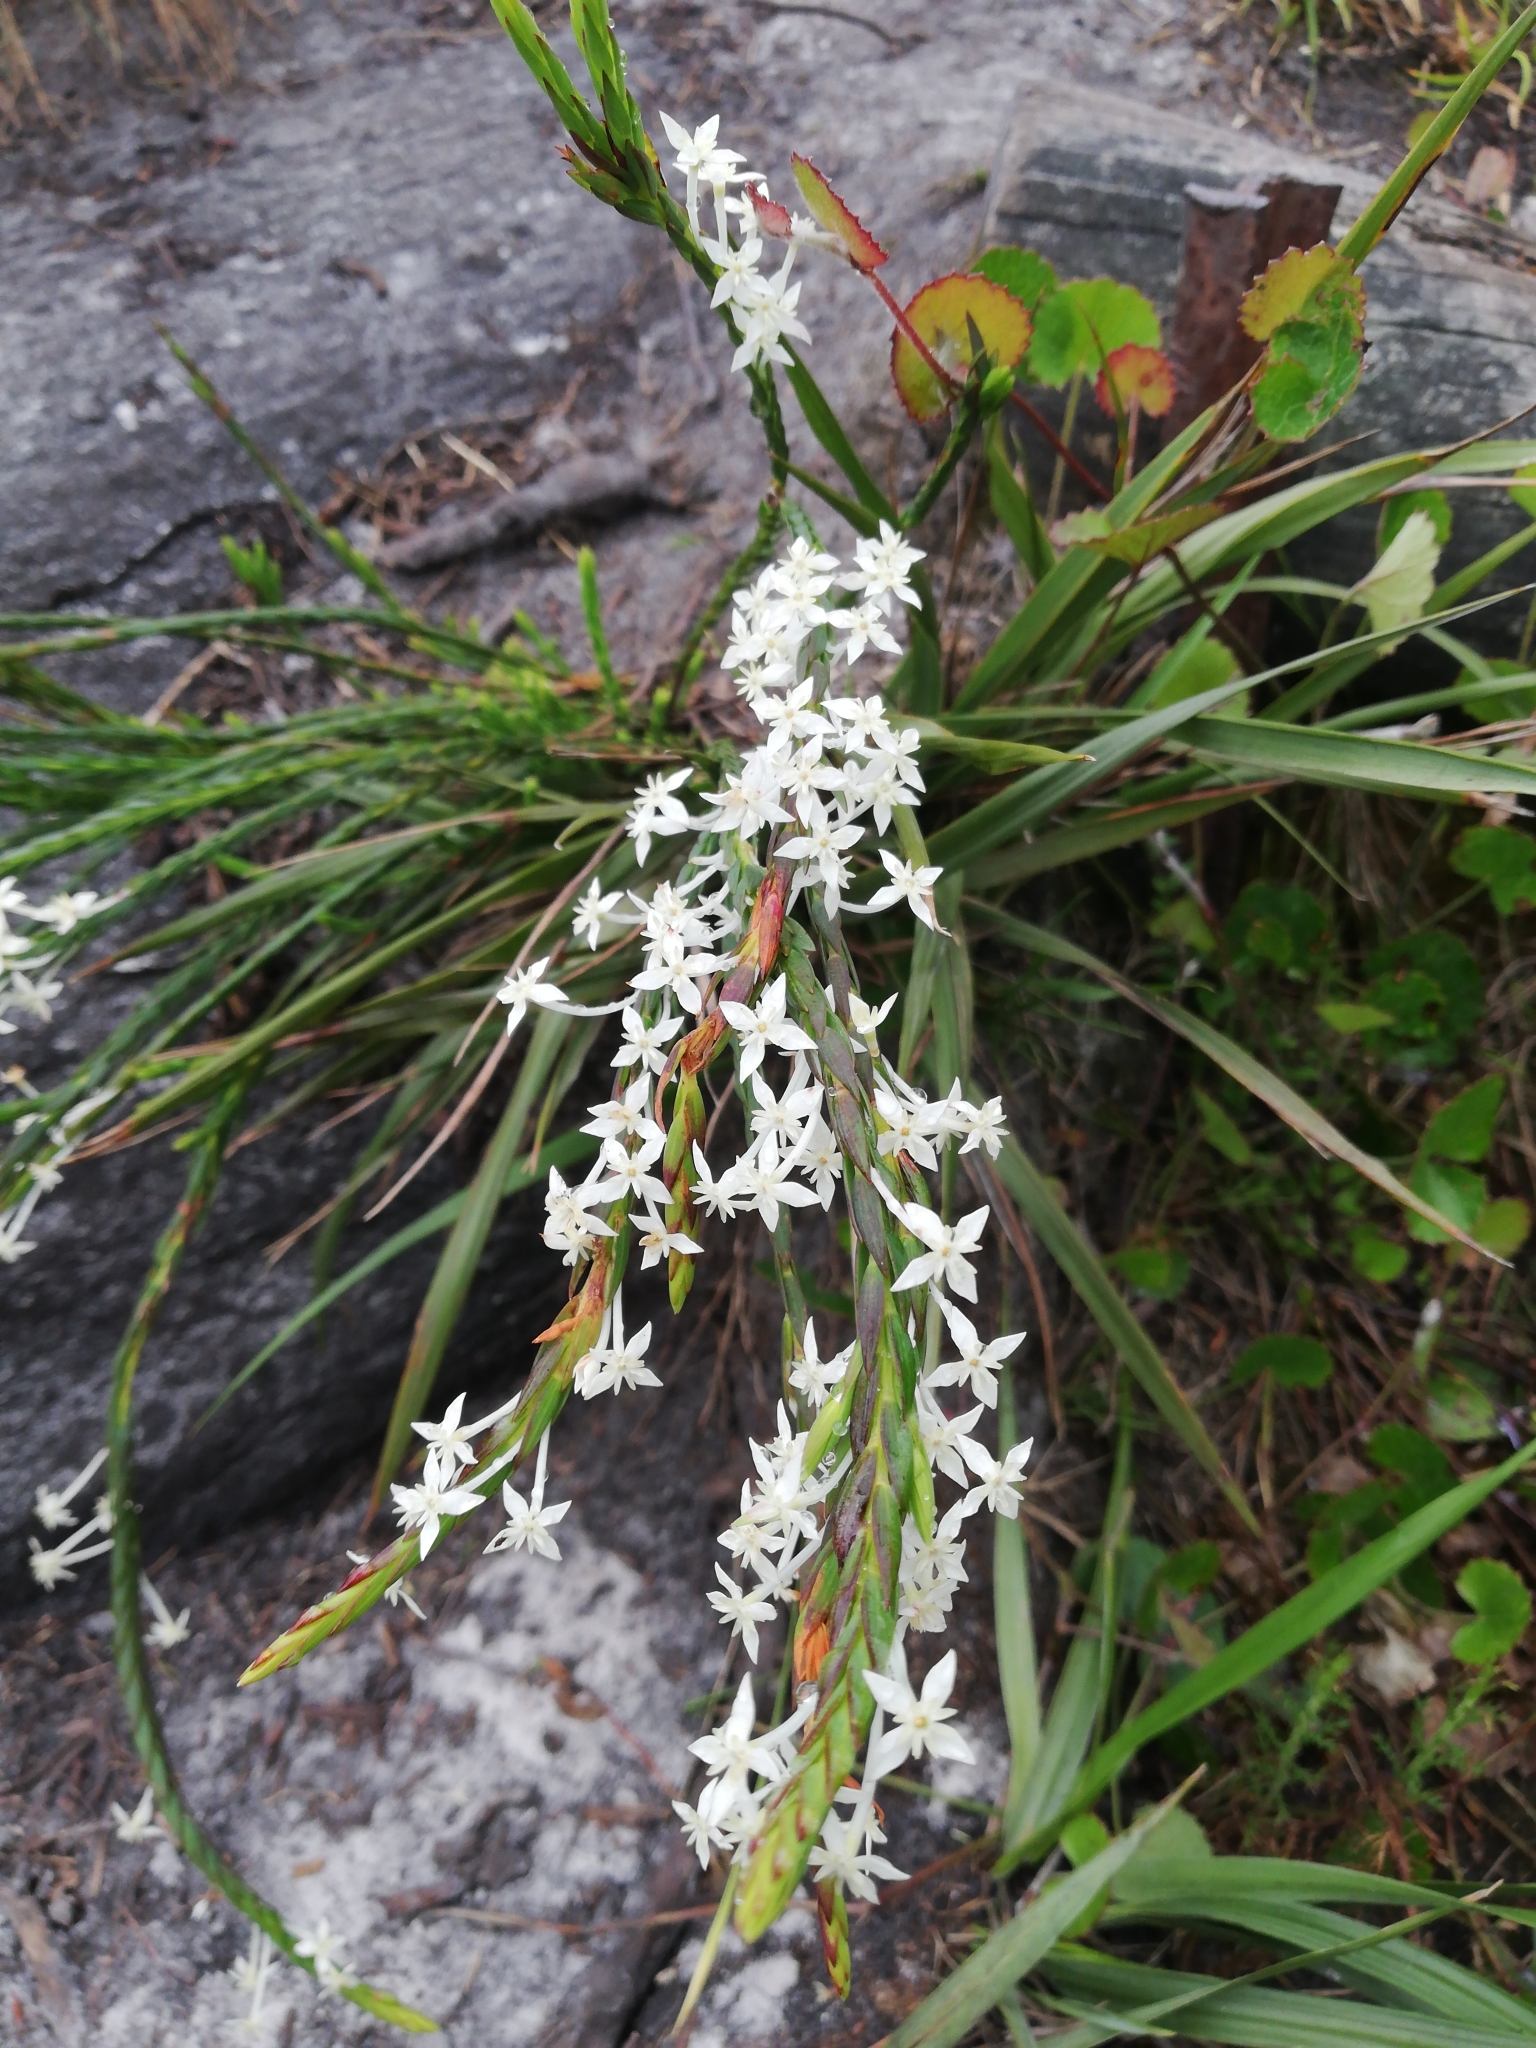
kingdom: Plantae
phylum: Tracheophyta
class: Magnoliopsida
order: Malvales
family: Thymelaeaceae
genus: Struthiola
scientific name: Struthiola myrsinites
